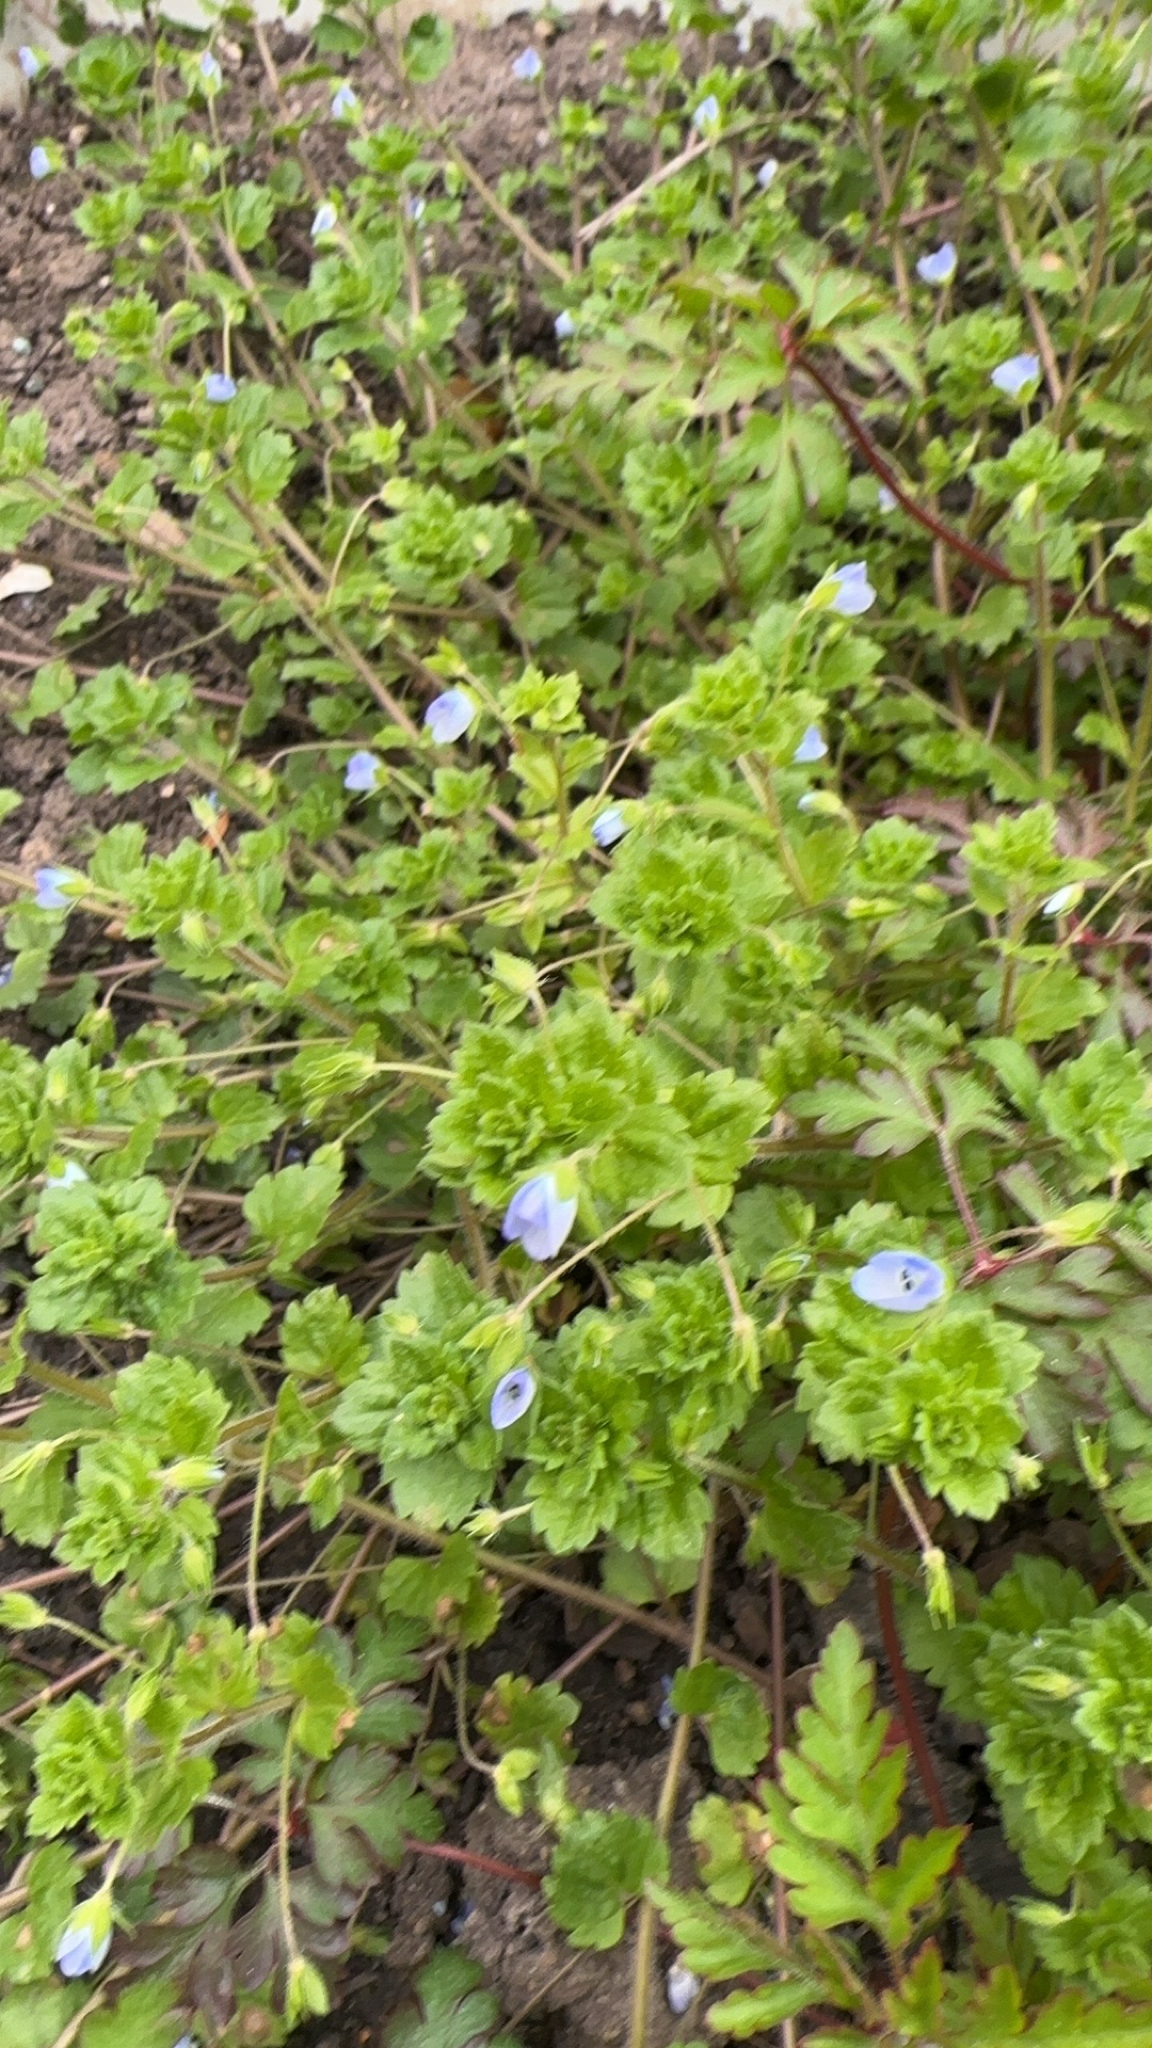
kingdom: Plantae
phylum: Tracheophyta
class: Magnoliopsida
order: Lamiales
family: Plantaginaceae
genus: Veronica
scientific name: Veronica persica
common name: Common field-speedwell
